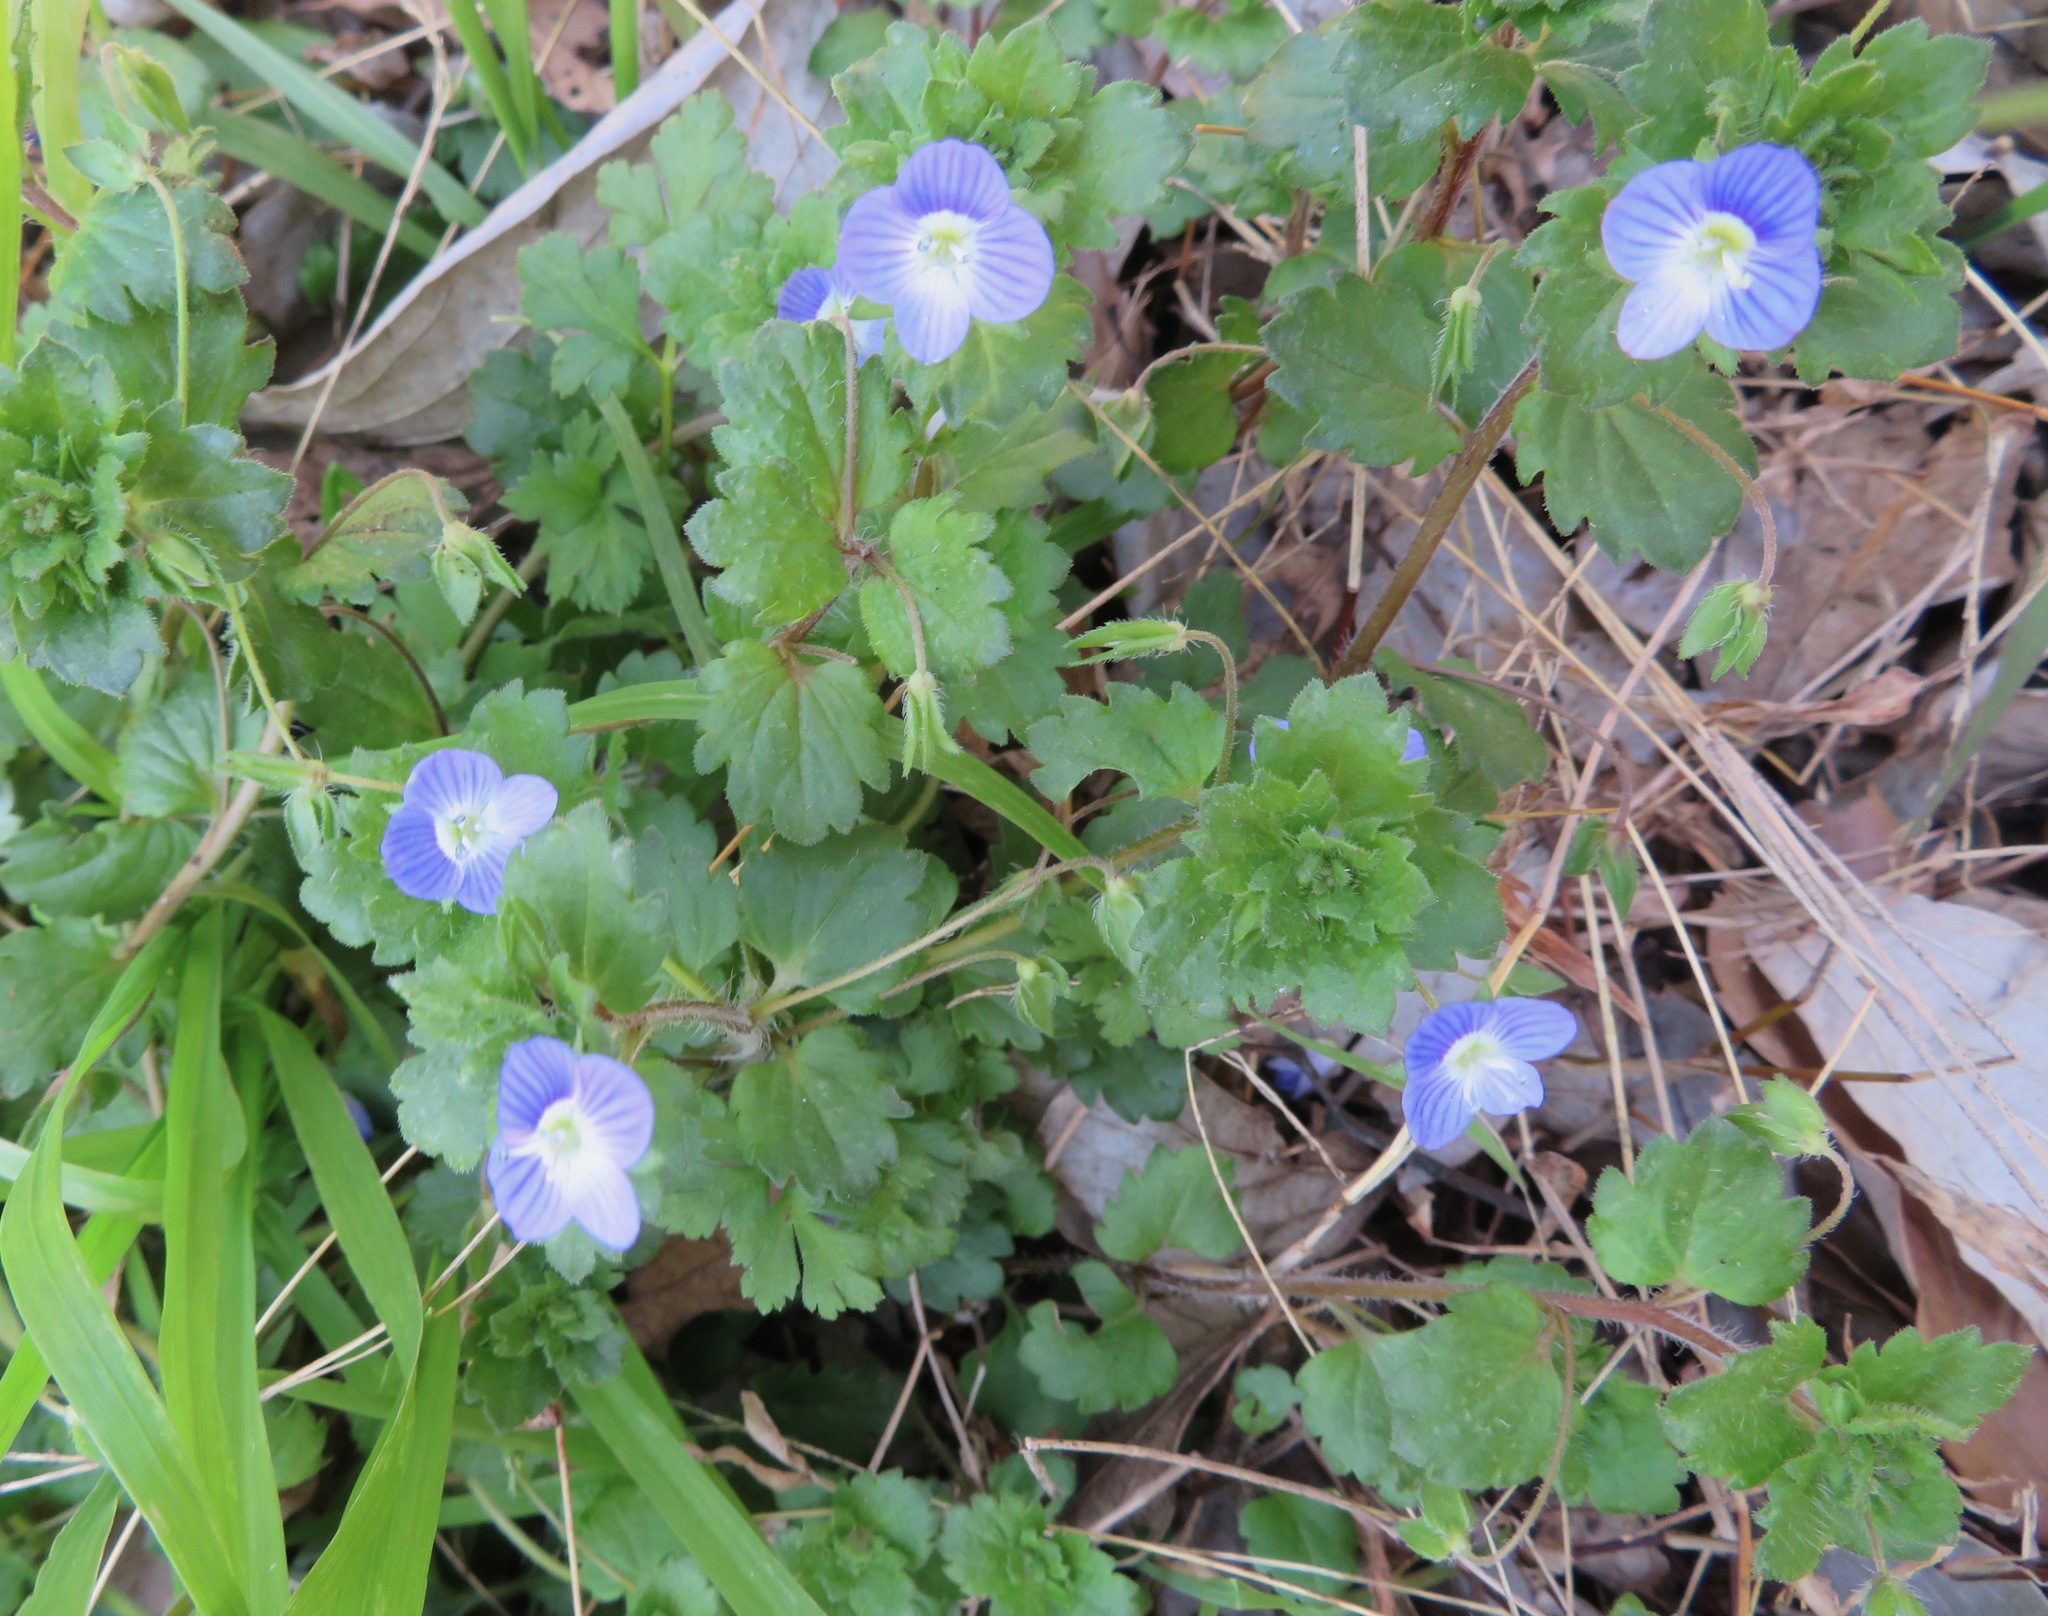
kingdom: Plantae
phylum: Tracheophyta
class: Magnoliopsida
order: Lamiales
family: Plantaginaceae
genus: Veronica
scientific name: Veronica persica
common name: Common field-speedwell
